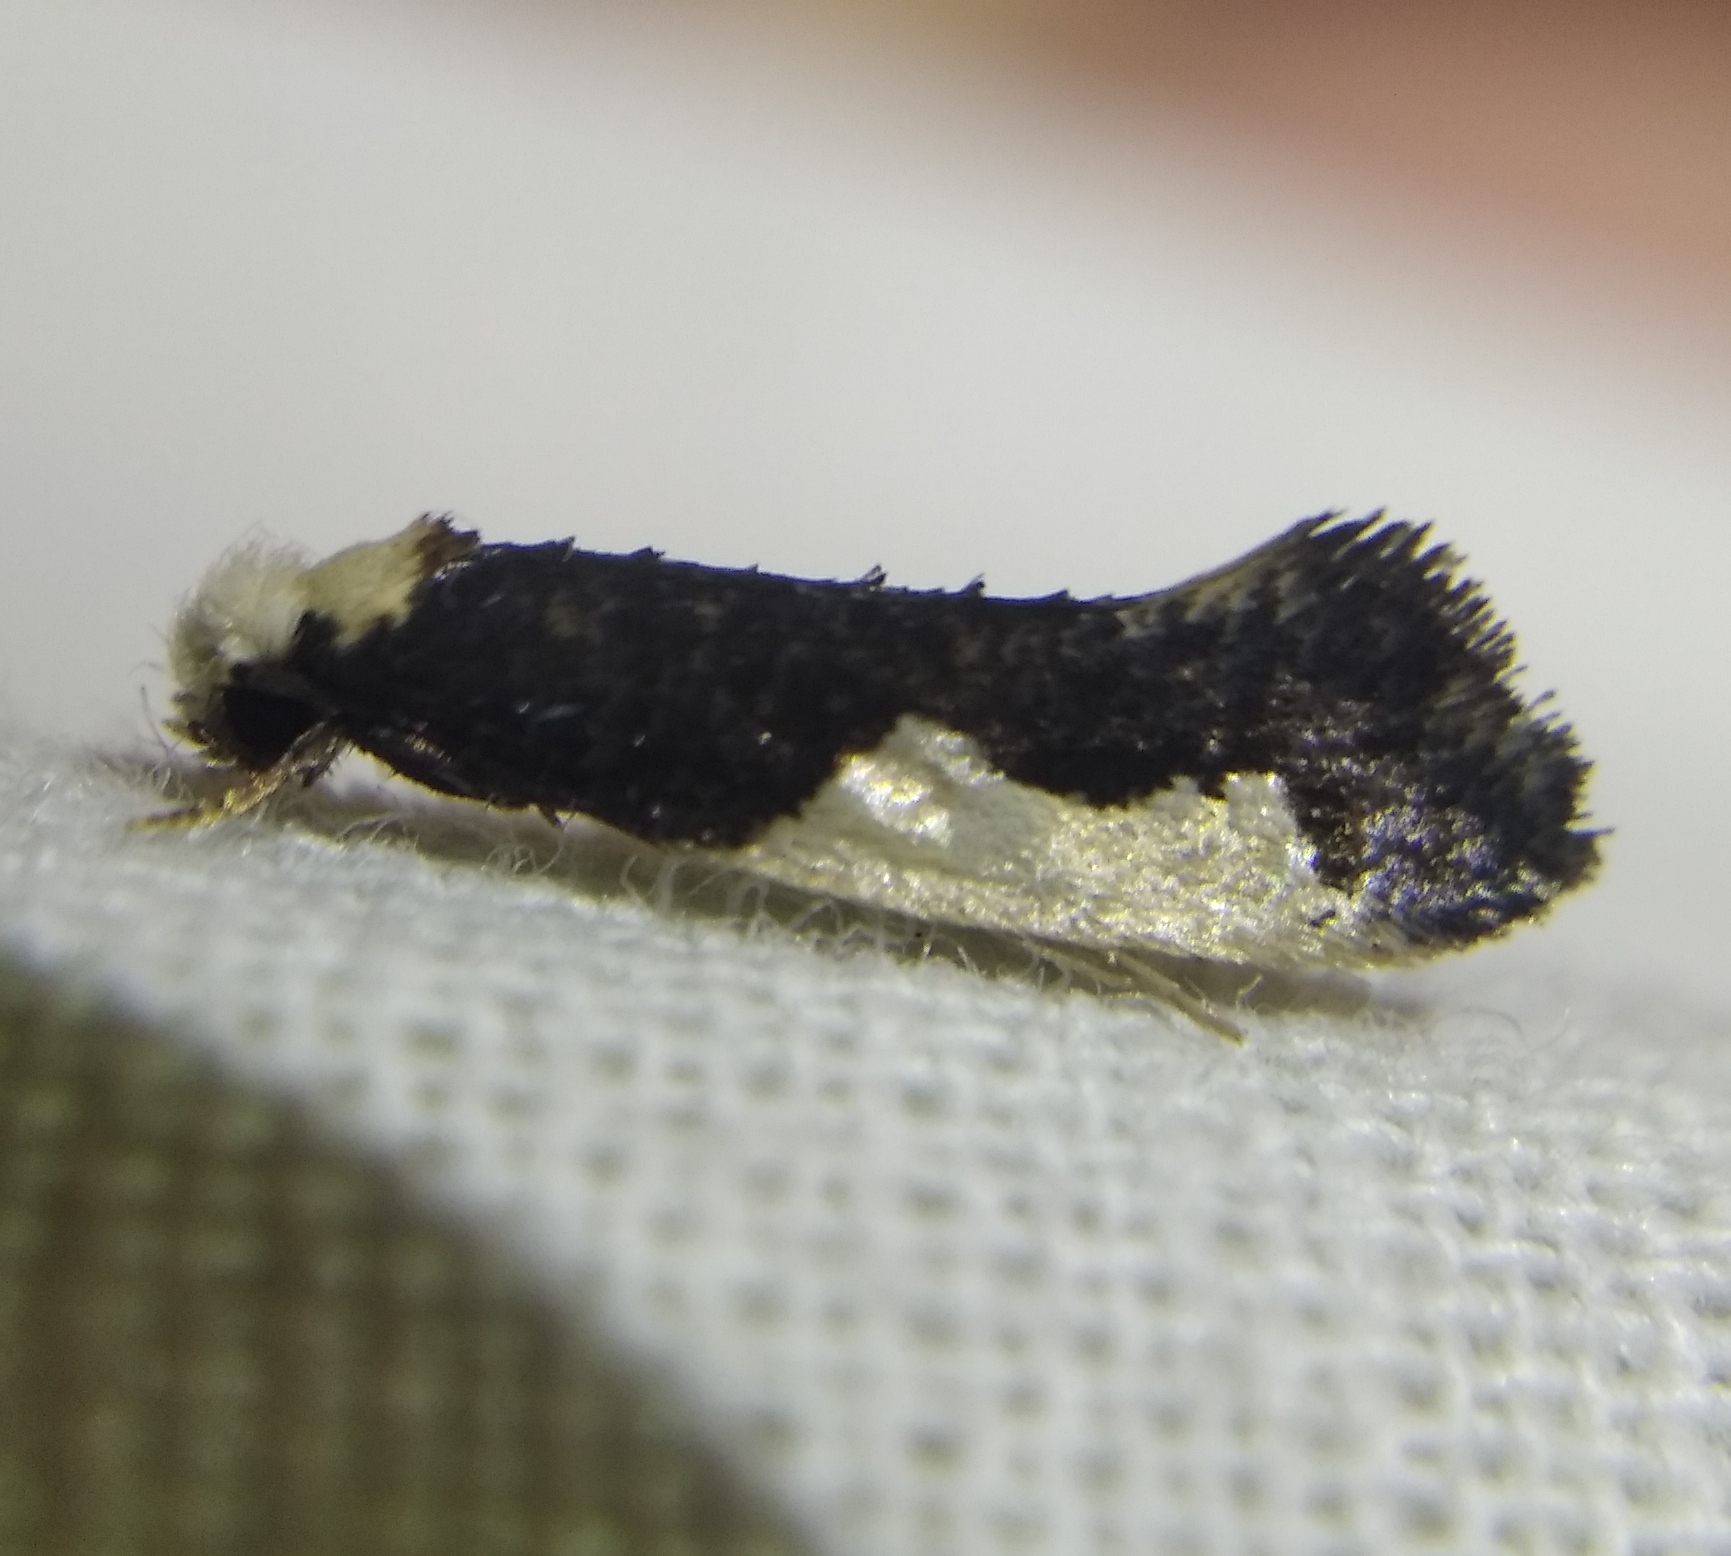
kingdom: Animalia
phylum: Arthropoda
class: Insecta
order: Lepidoptera
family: Tineidae
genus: Monopis
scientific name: Monopis monachella
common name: Moth
